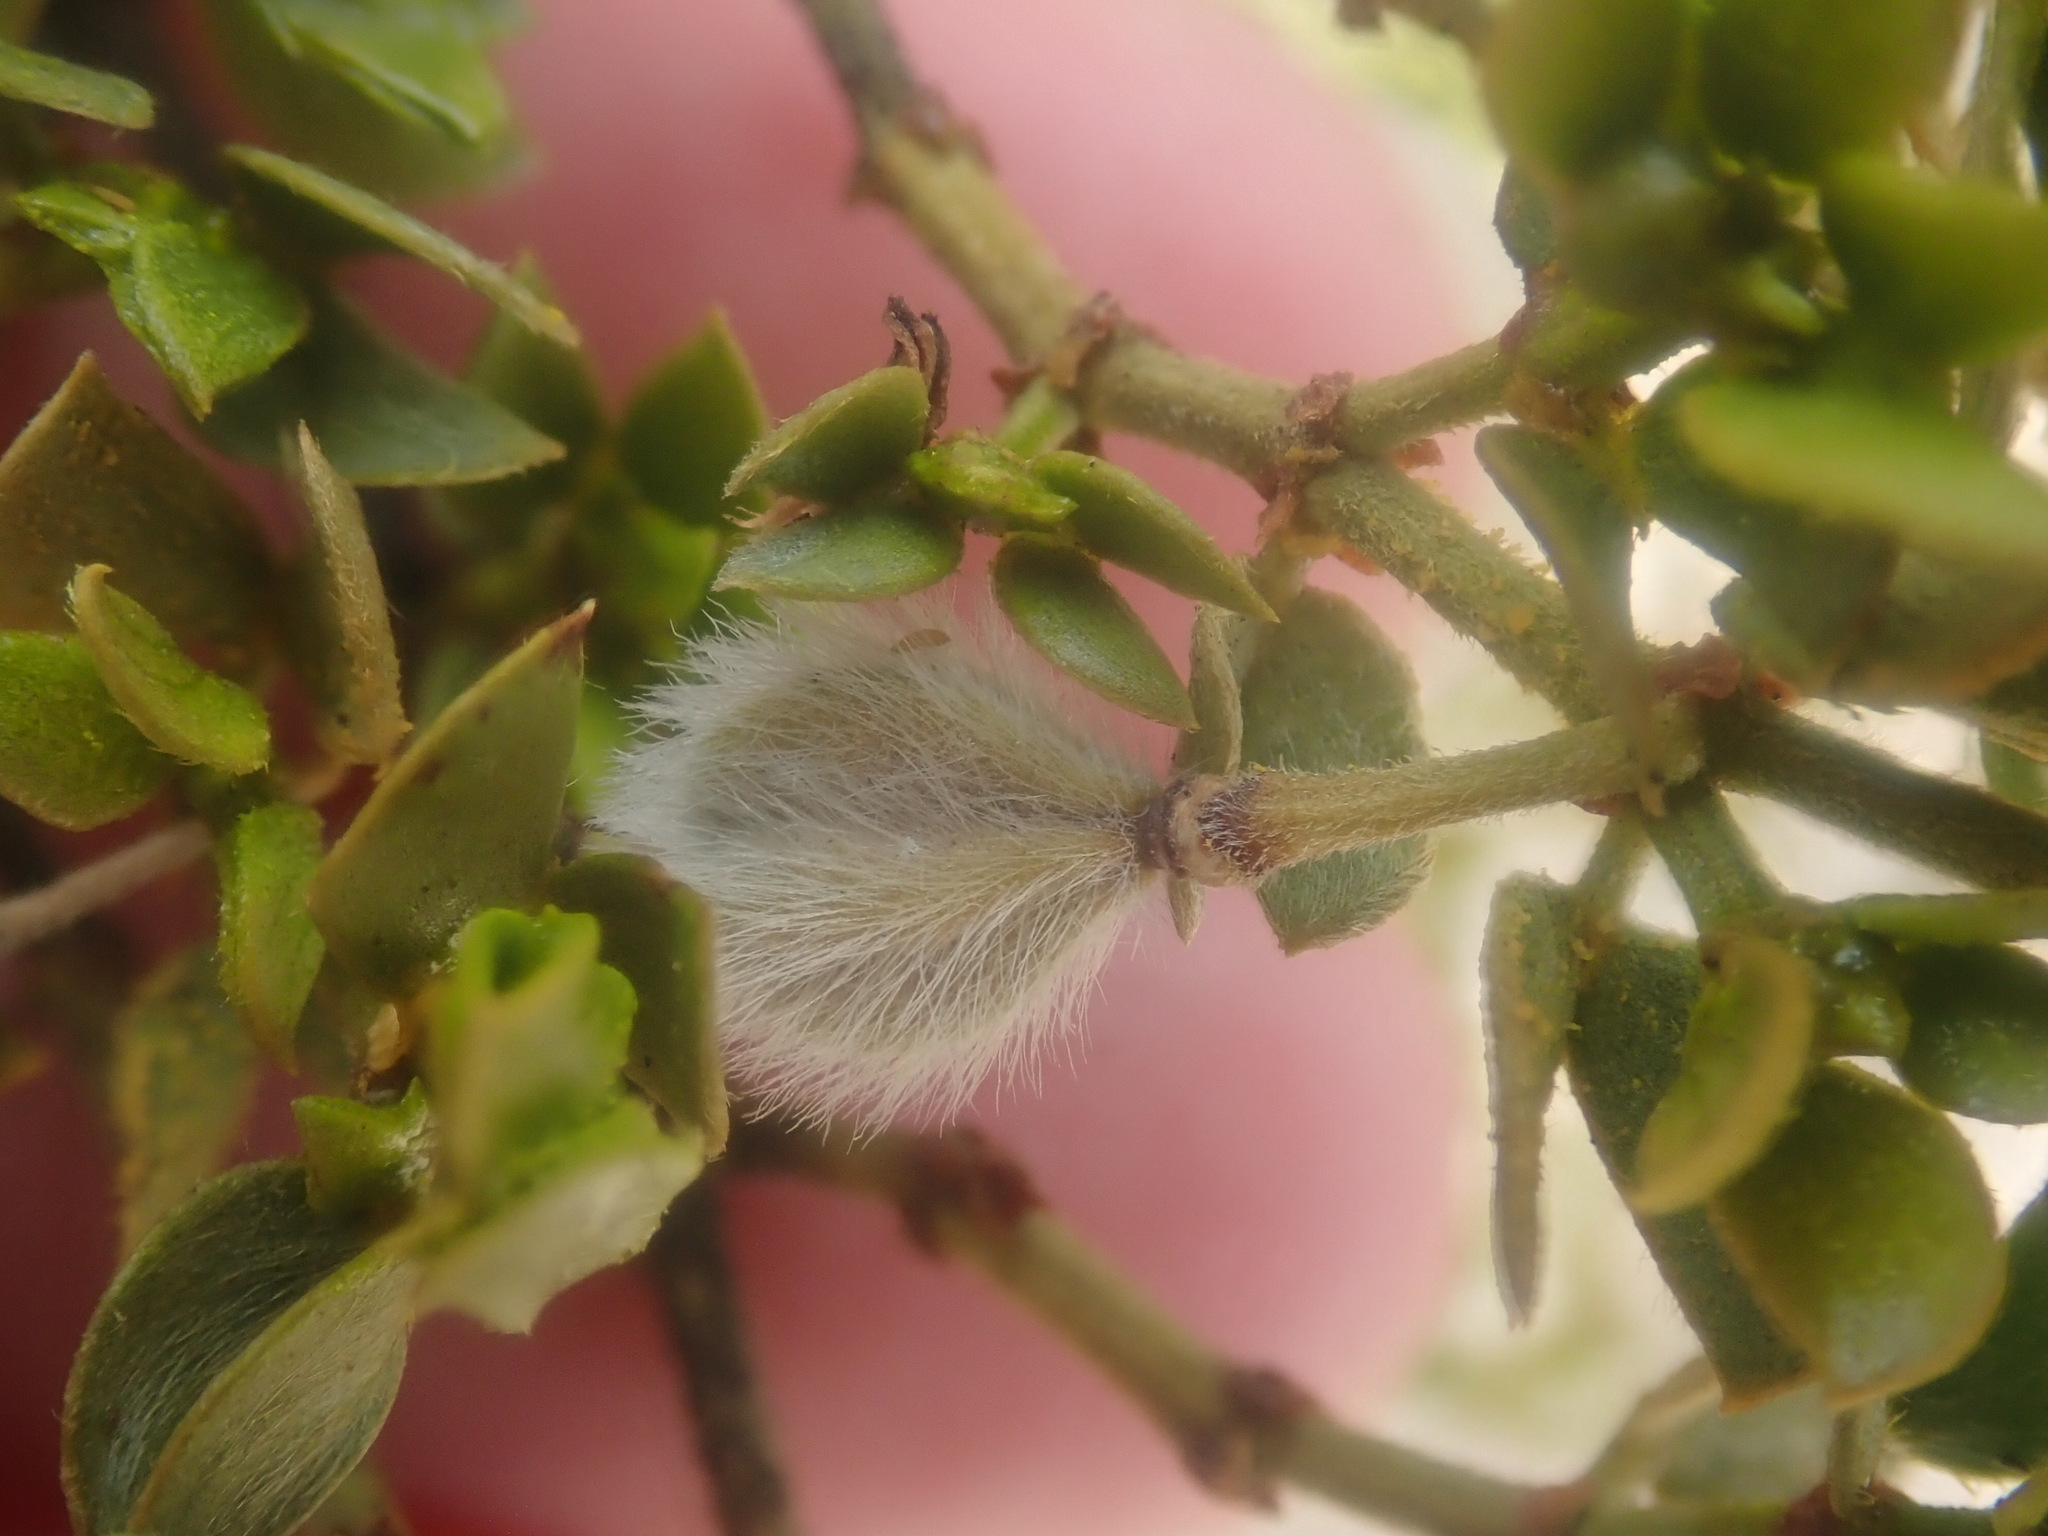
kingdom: Plantae
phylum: Tracheophyta
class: Magnoliopsida
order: Zygophyllales
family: Zygophyllaceae
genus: Larrea
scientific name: Larrea tridentata
